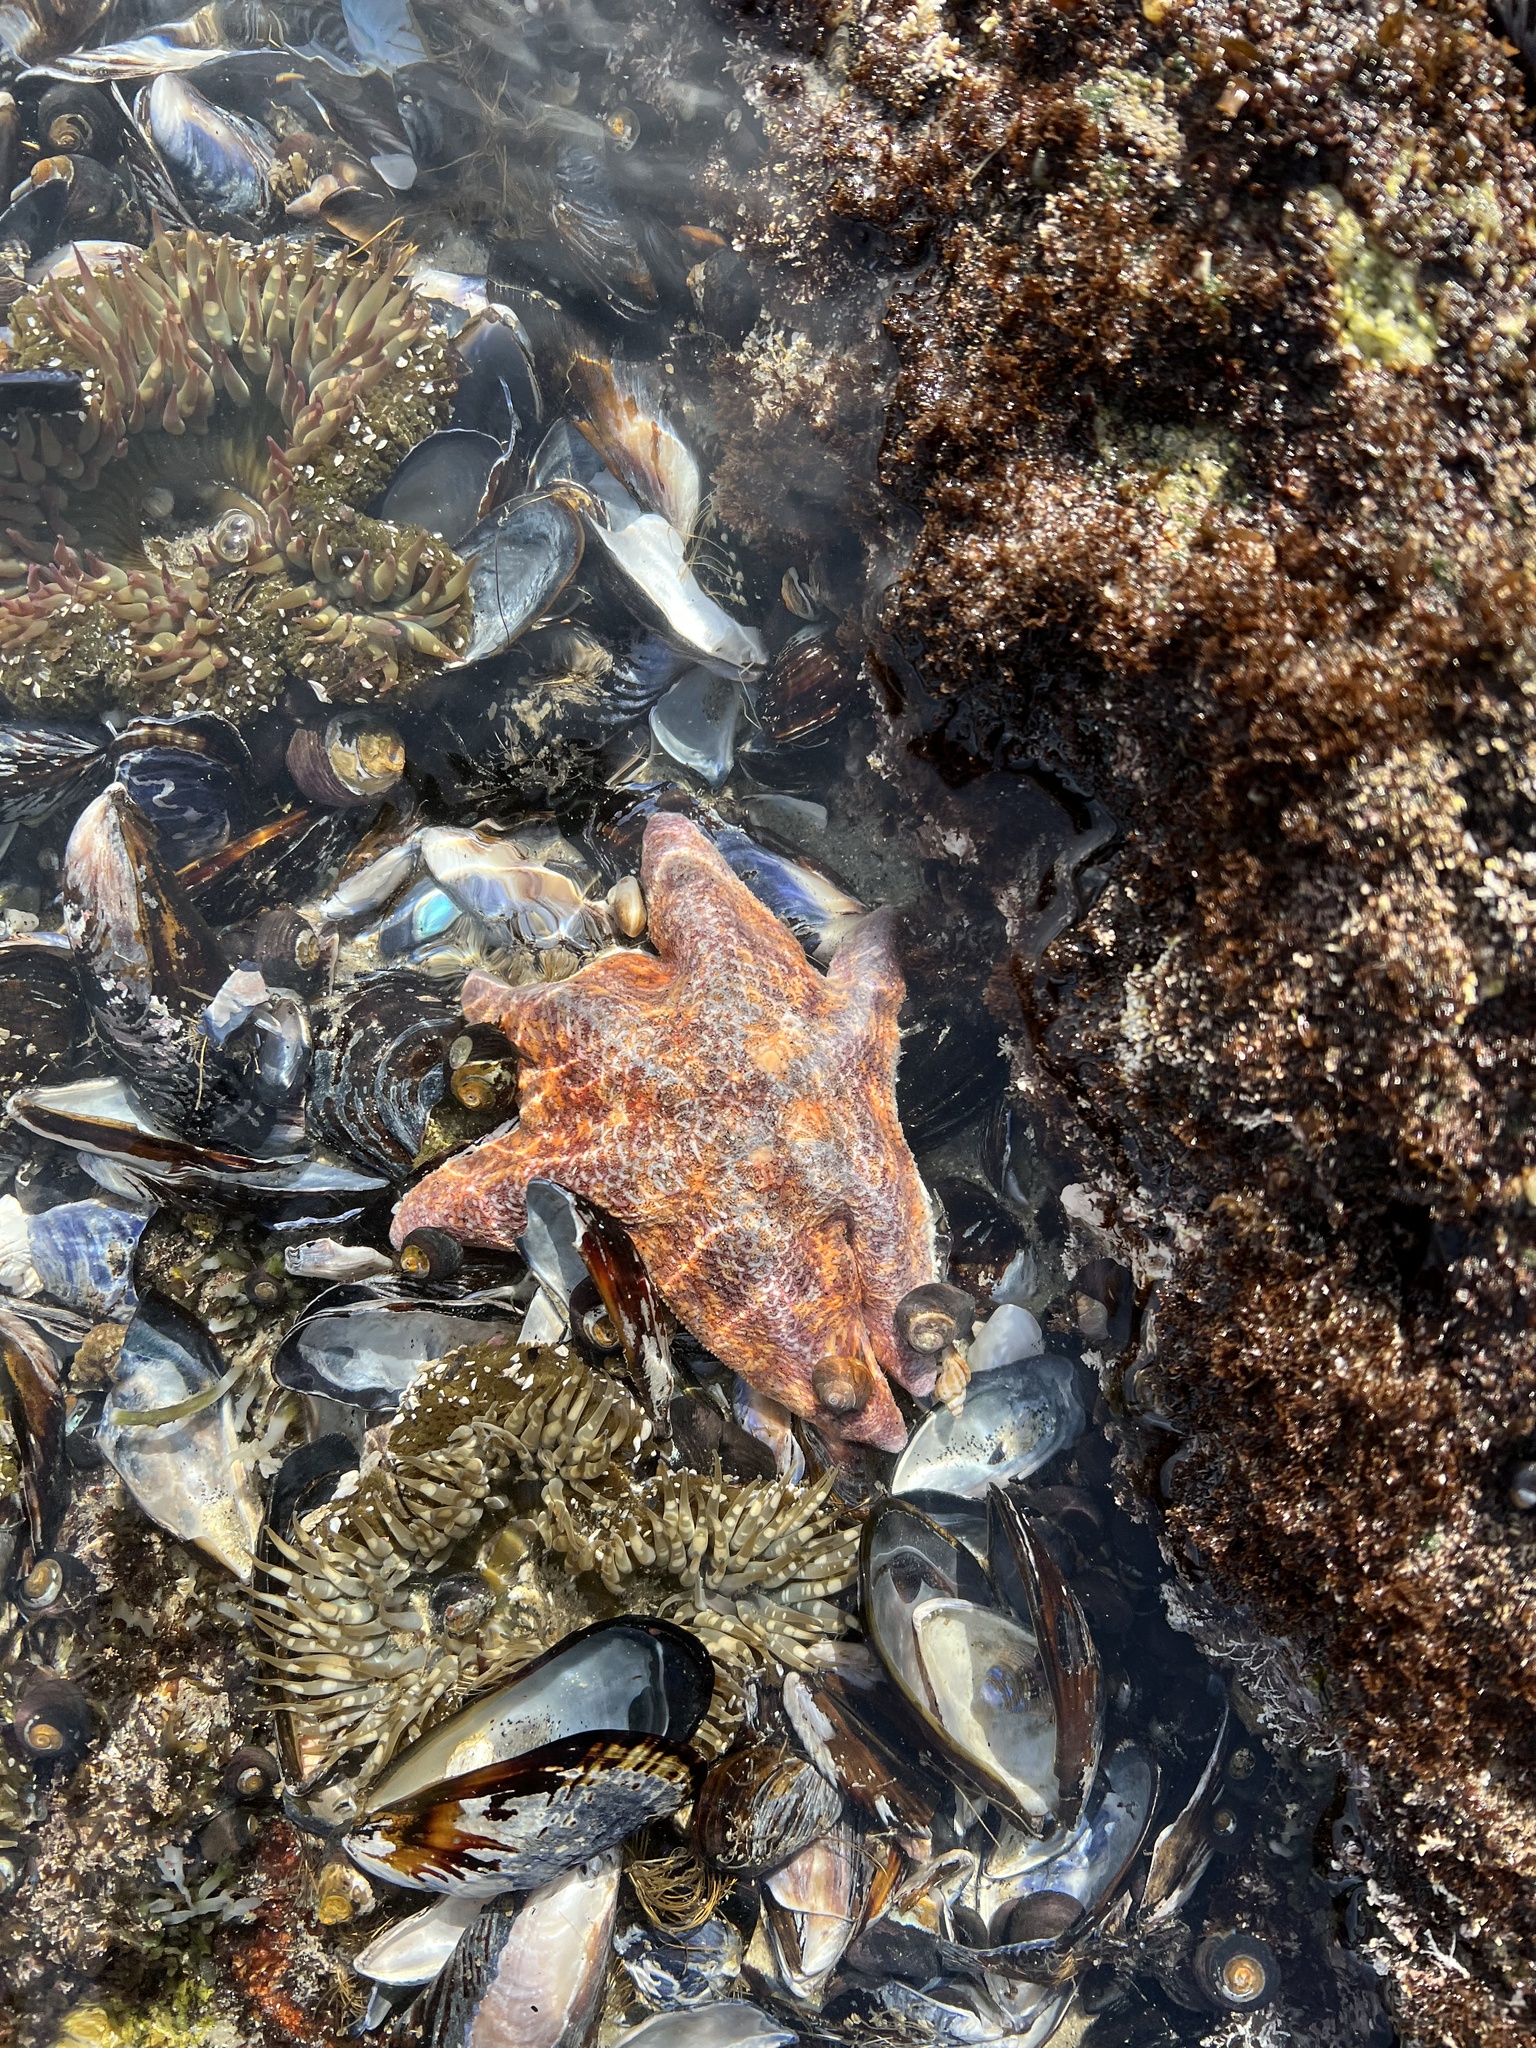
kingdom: Animalia
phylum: Echinodermata
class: Asteroidea
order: Valvatida
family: Asterinidae
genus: Patiria
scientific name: Patiria miniata
